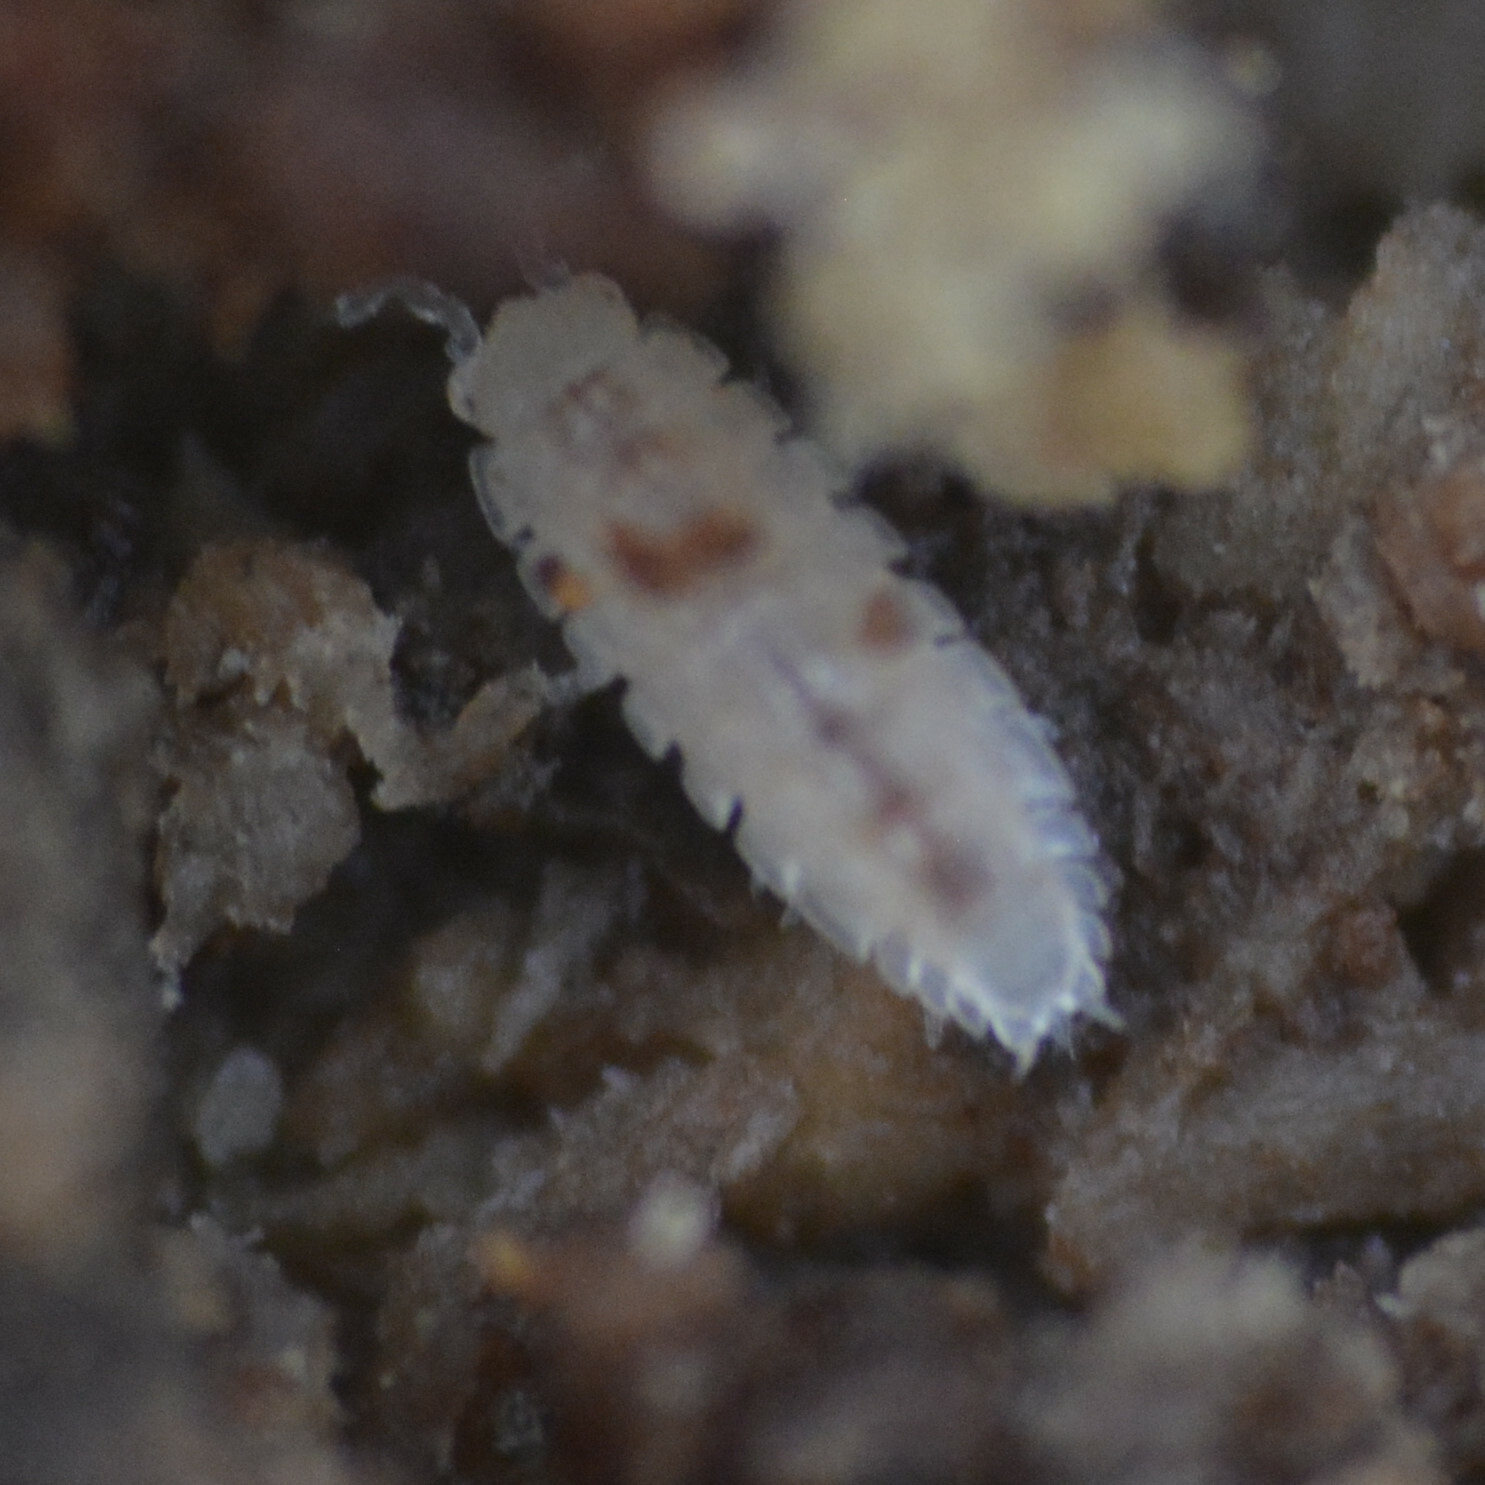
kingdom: Animalia
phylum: Arthropoda
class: Malacostraca
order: Isopoda
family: Trichoniscidae
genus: Haplophthalmus
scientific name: Haplophthalmus danicus
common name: Pillbug
